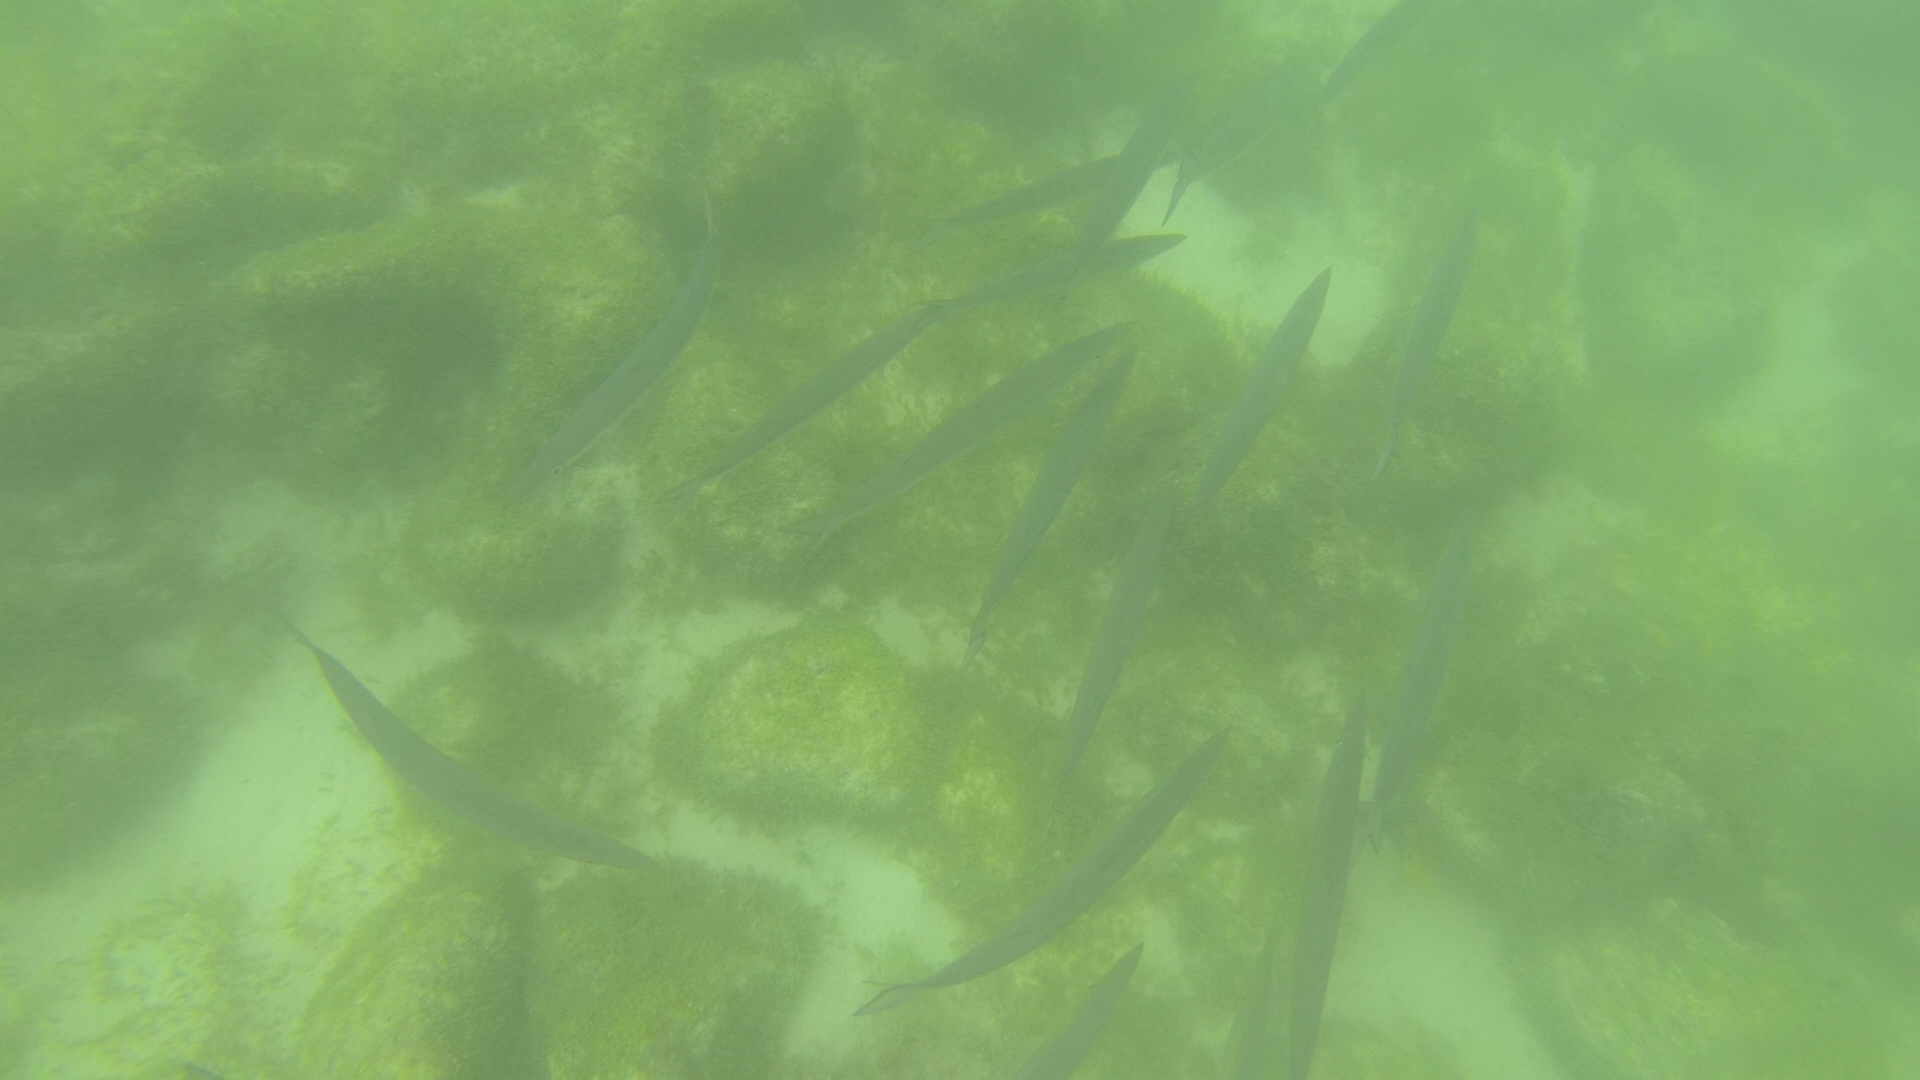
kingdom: Animalia
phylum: Chordata
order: Perciformes
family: Sphyraenidae
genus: Sphyraena
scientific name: Sphyraena idiastes
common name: Pelican barracuda
